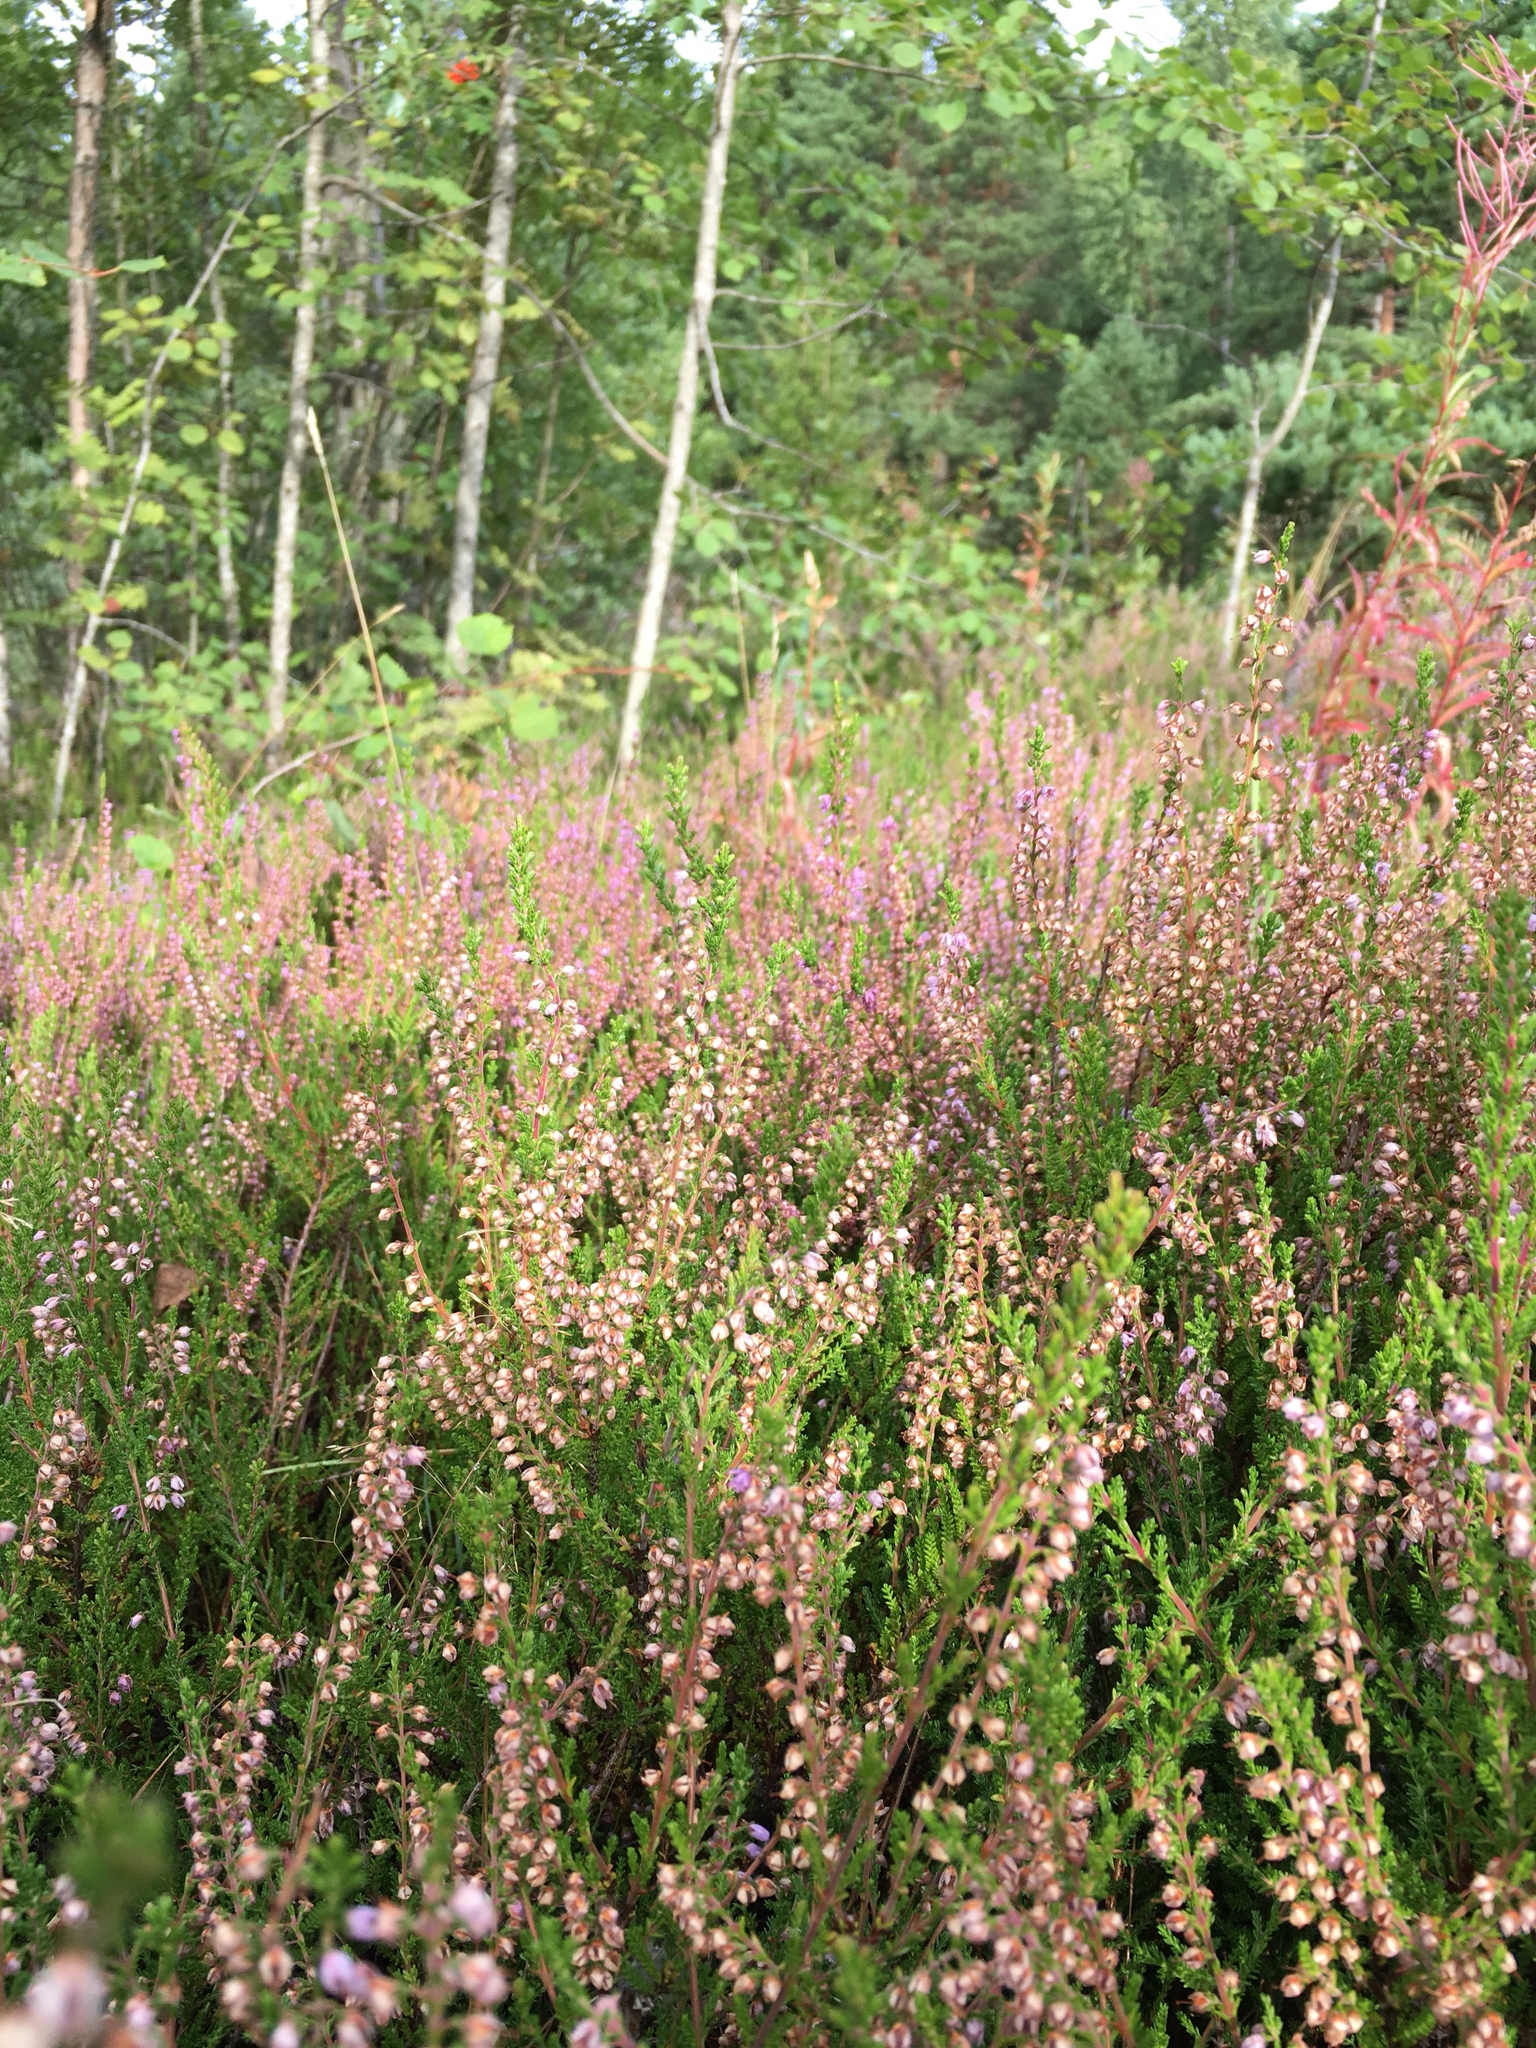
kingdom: Plantae
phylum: Tracheophyta
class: Magnoliopsida
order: Ericales
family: Ericaceae
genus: Calluna
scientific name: Calluna vulgaris
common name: Heather
